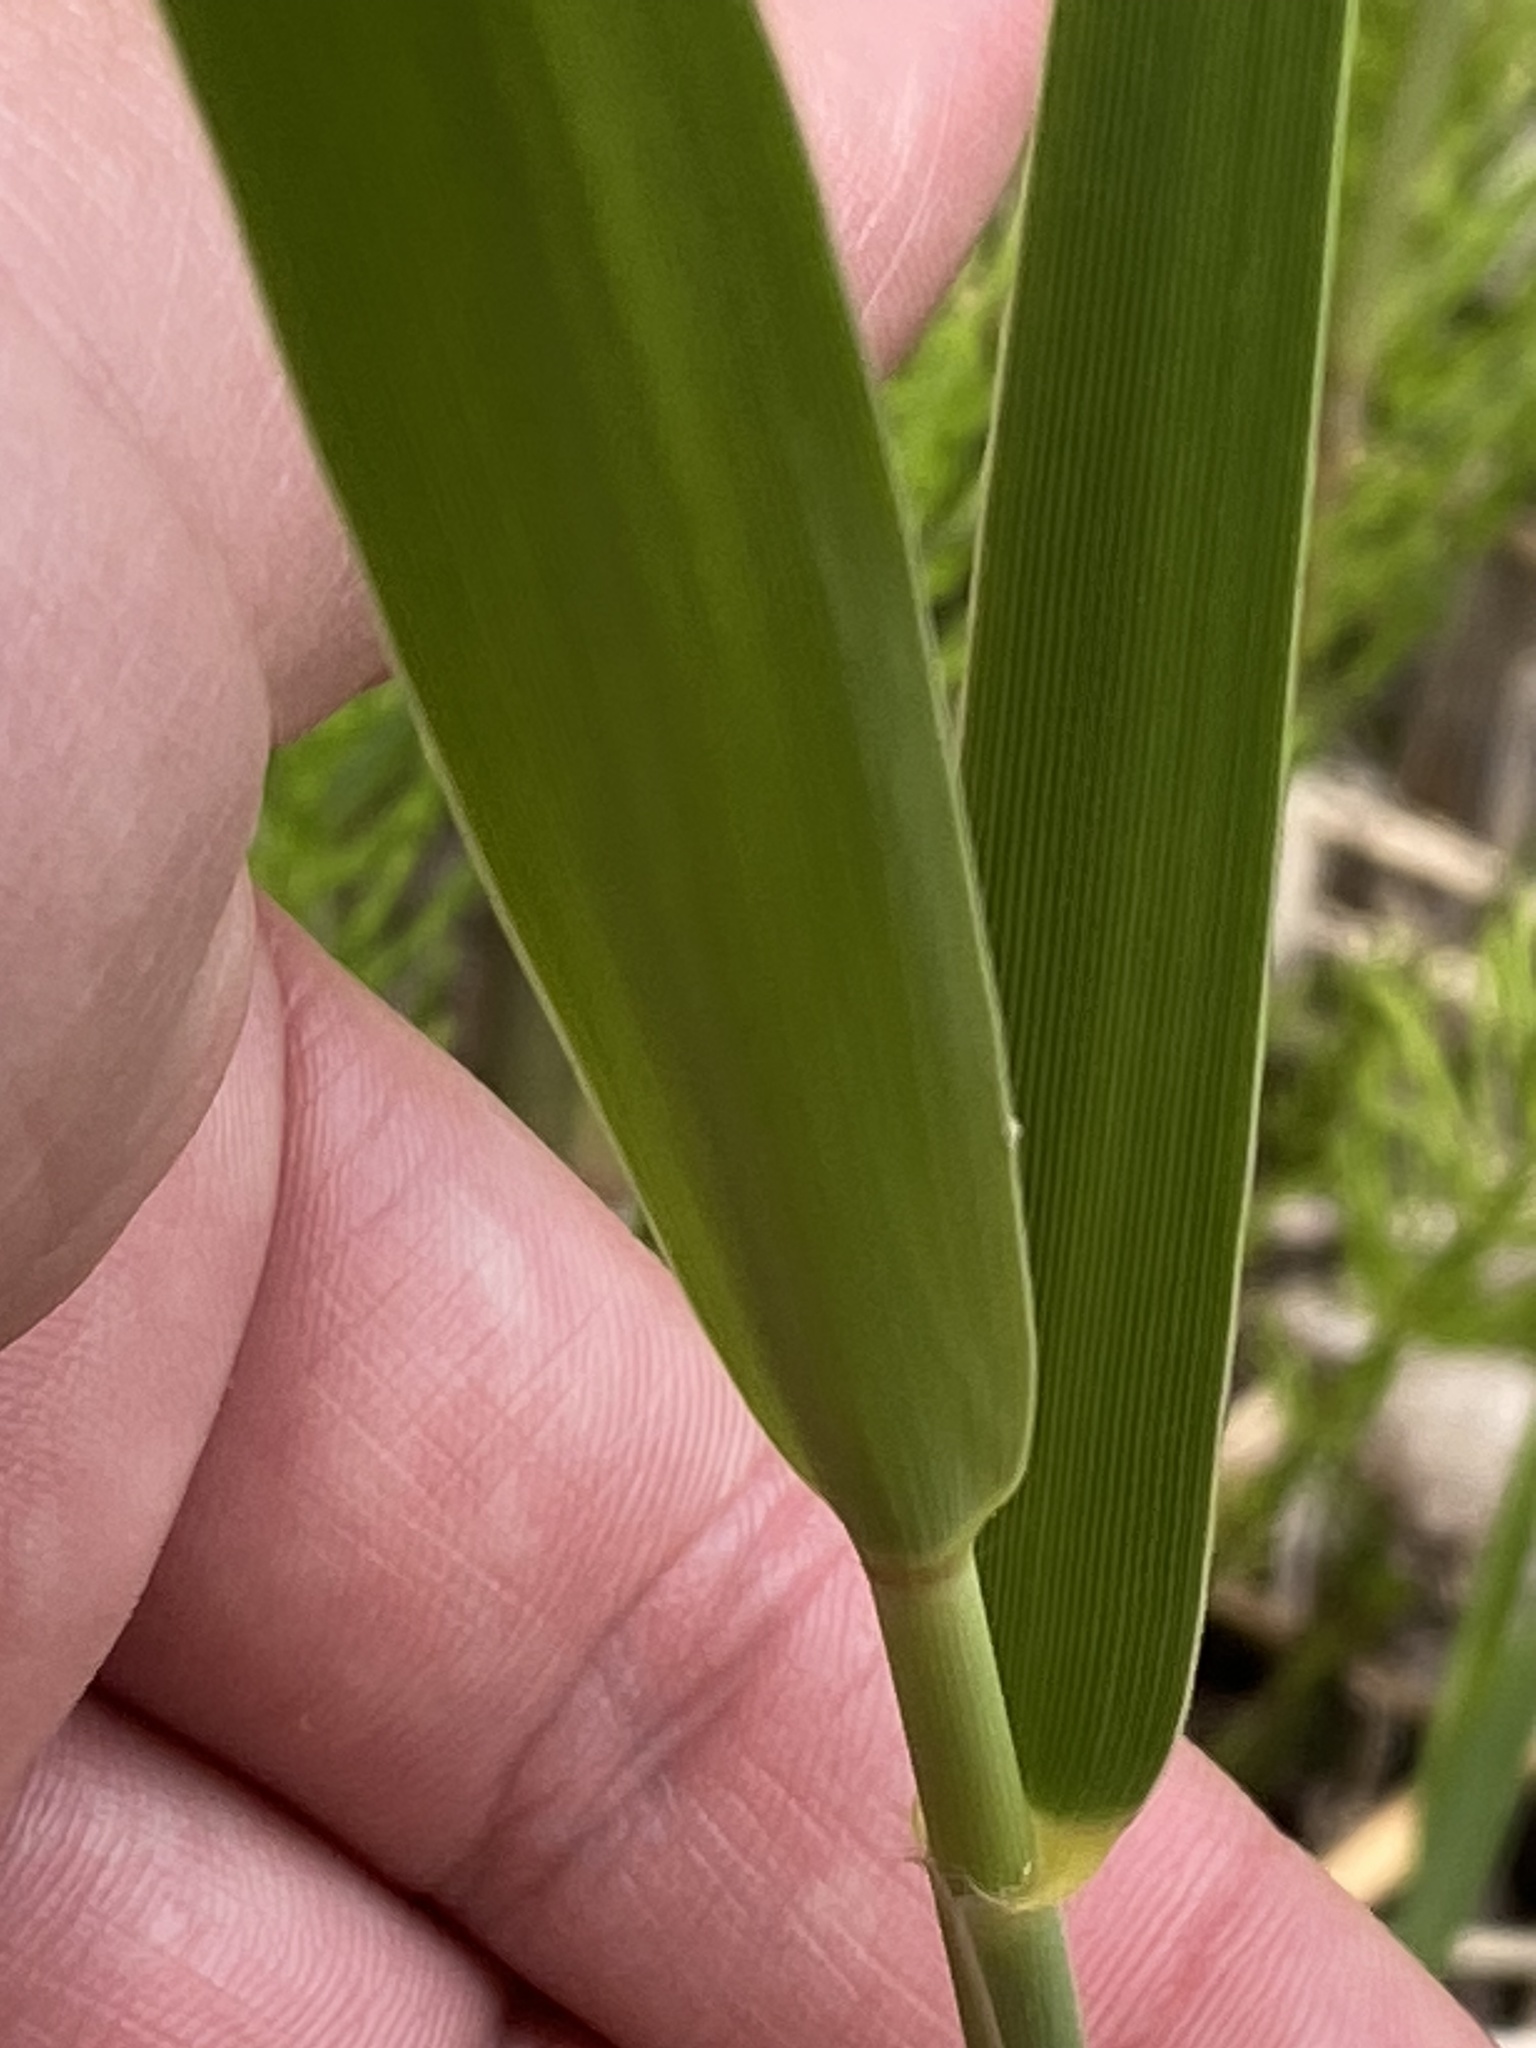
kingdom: Plantae
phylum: Tracheophyta
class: Liliopsida
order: Poales
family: Poaceae
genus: Phragmites
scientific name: Phragmites australis
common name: Common reed
